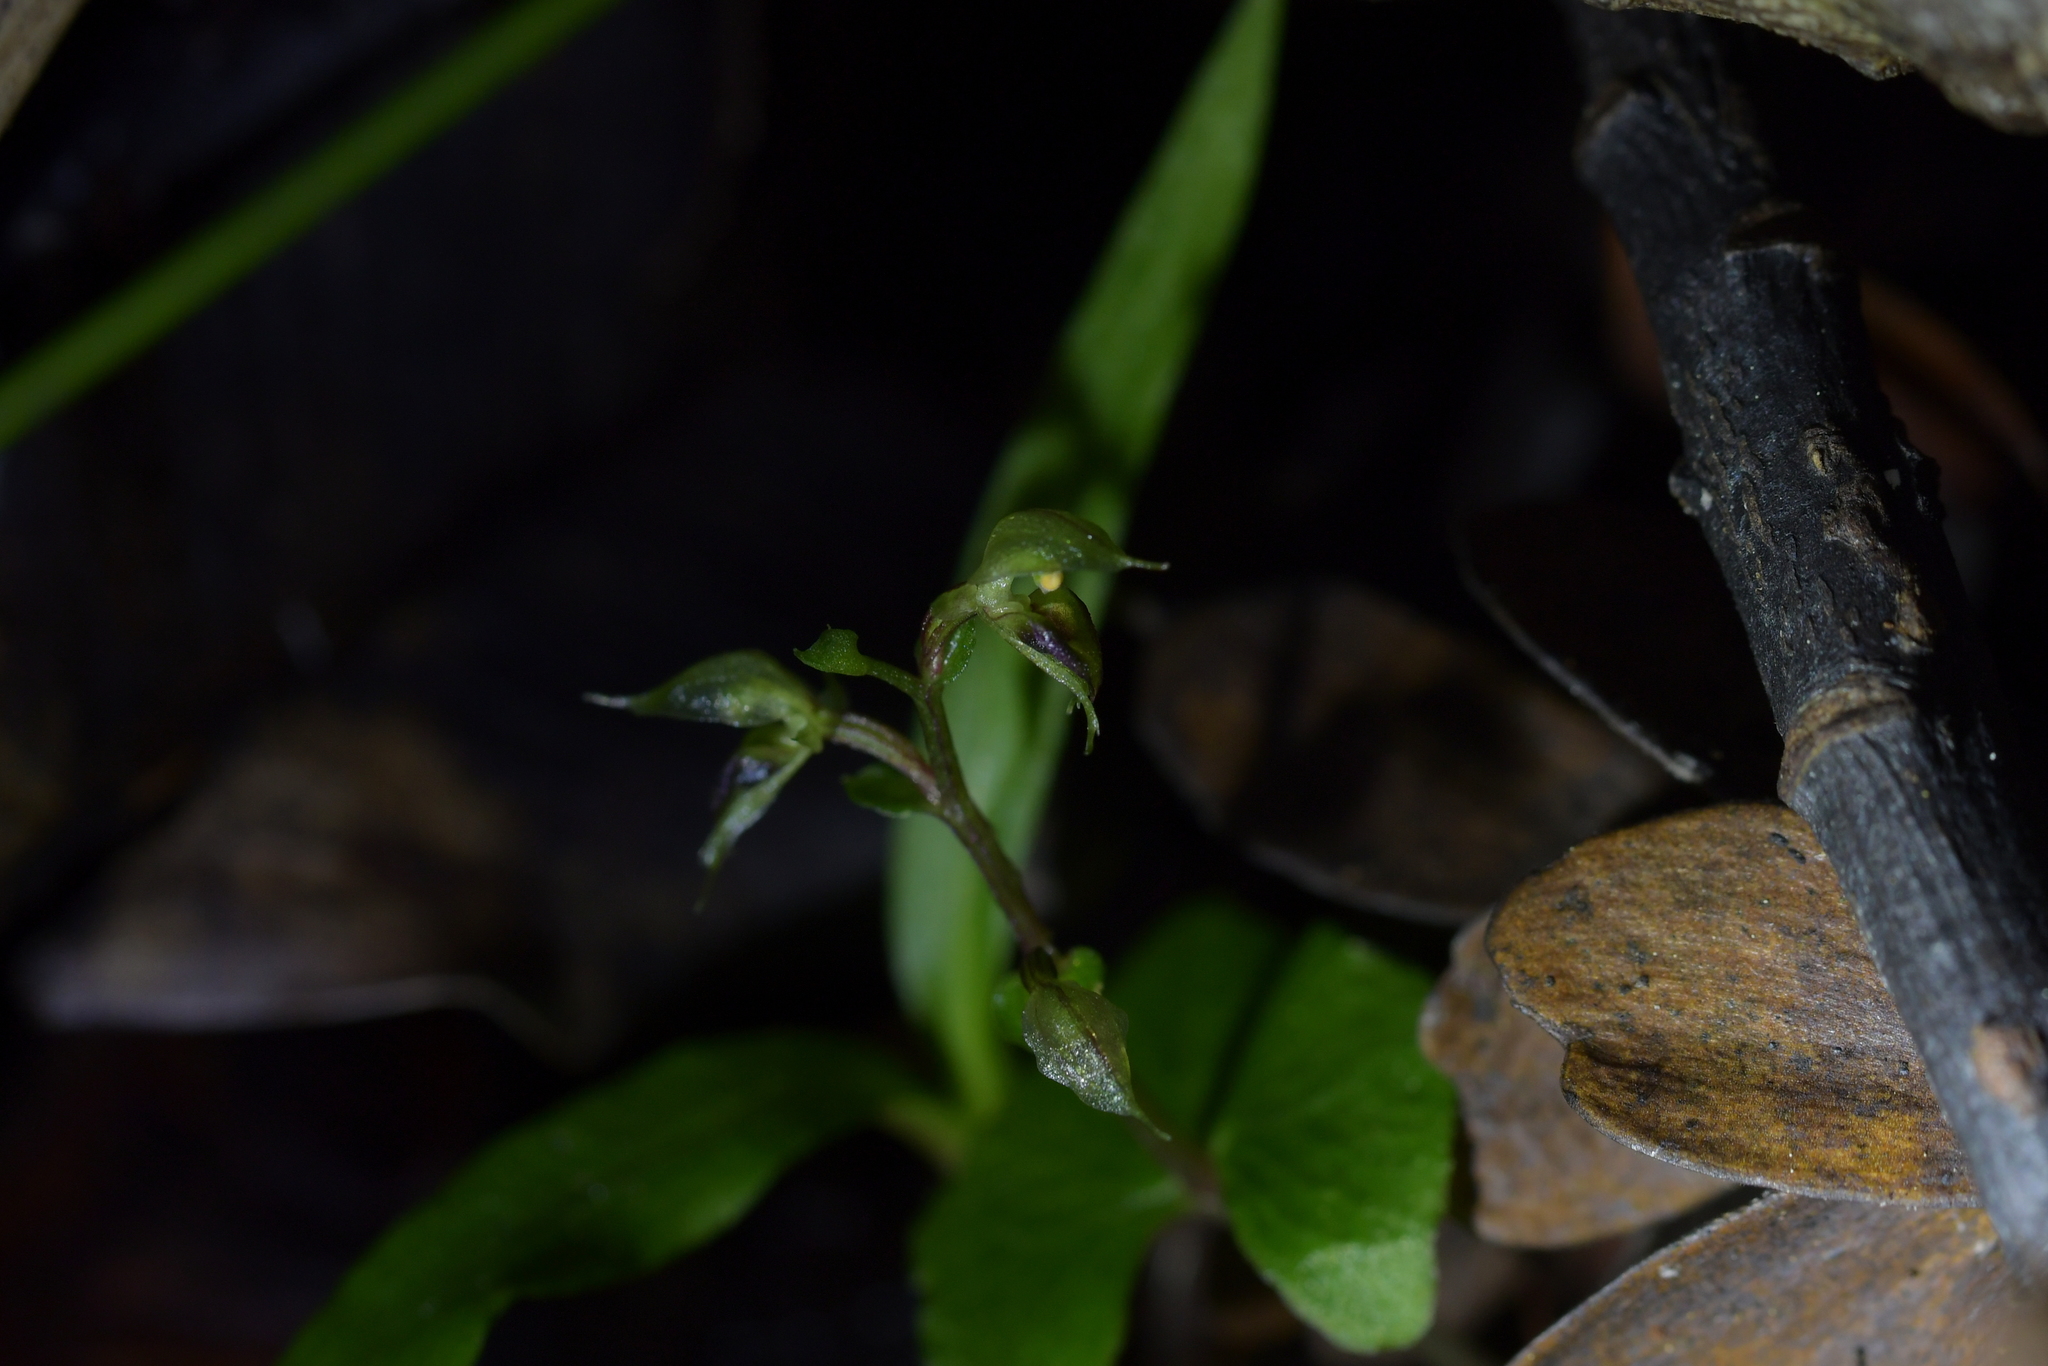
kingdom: Plantae
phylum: Tracheophyta
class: Liliopsida
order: Asparagales
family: Orchidaceae
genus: Acianthus
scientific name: Acianthus sinclairii
